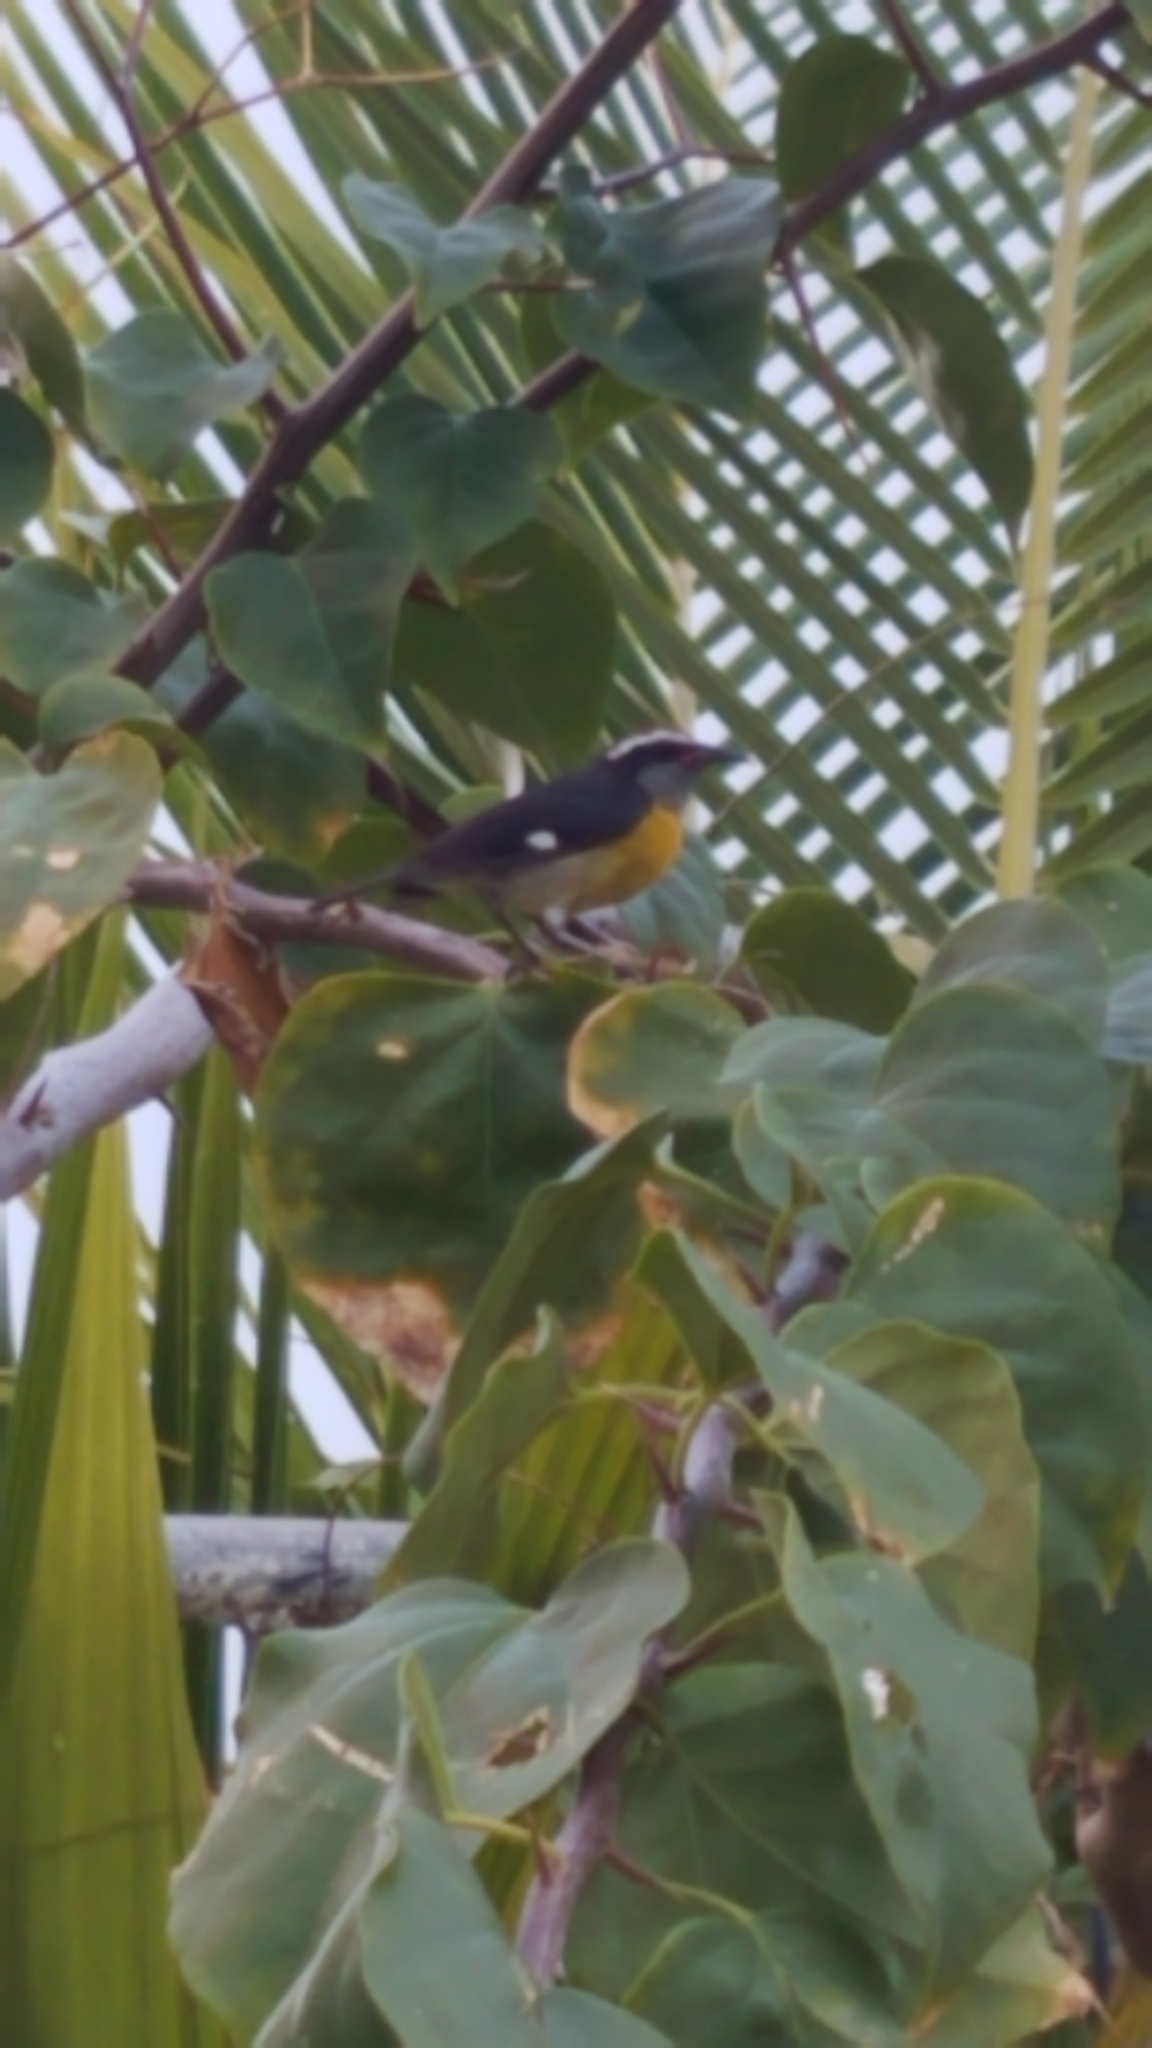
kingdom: Animalia
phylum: Chordata
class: Aves
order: Passeriformes
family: Thraupidae
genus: Coereba
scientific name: Coereba flaveola
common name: Bananaquit
